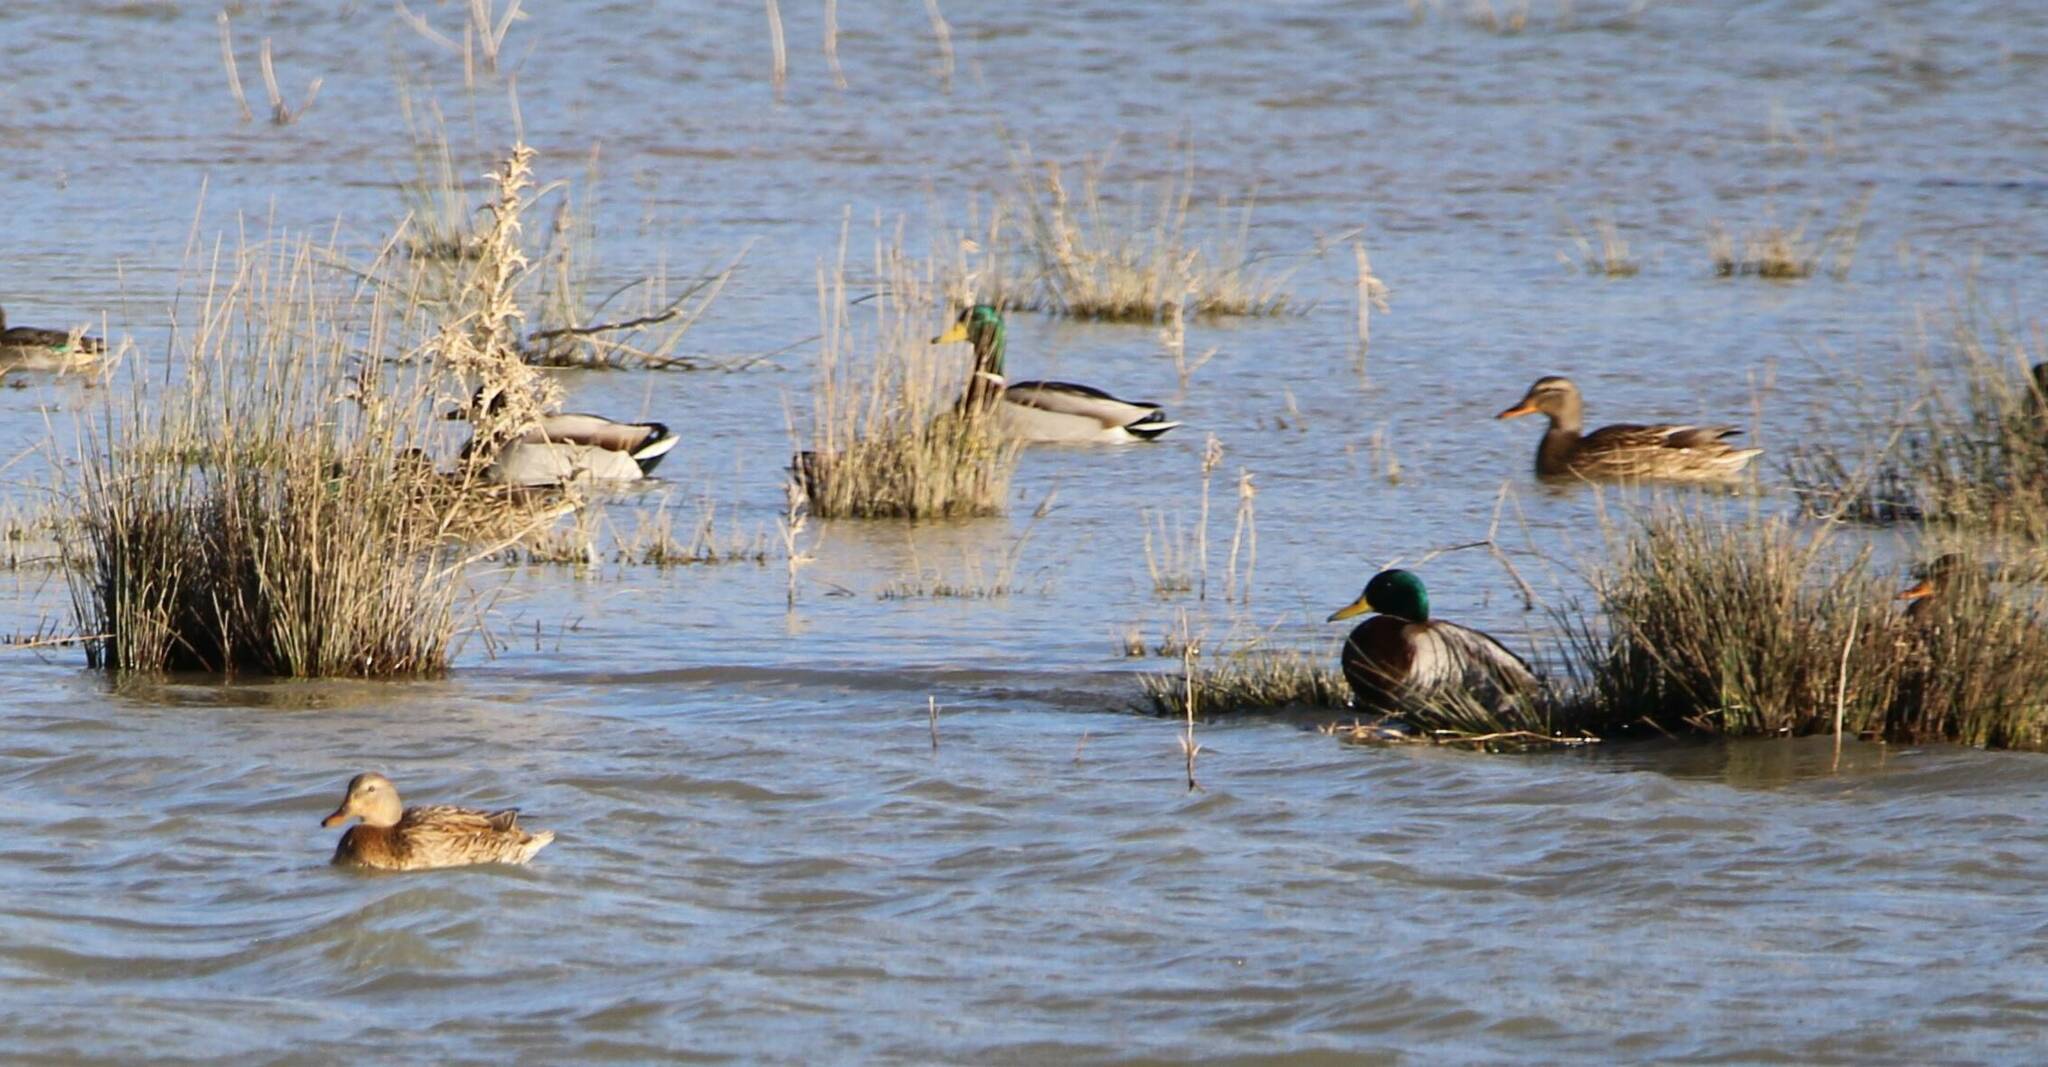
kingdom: Animalia
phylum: Chordata
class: Aves
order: Anseriformes
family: Anatidae
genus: Anas
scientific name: Anas platyrhynchos
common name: Mallard
